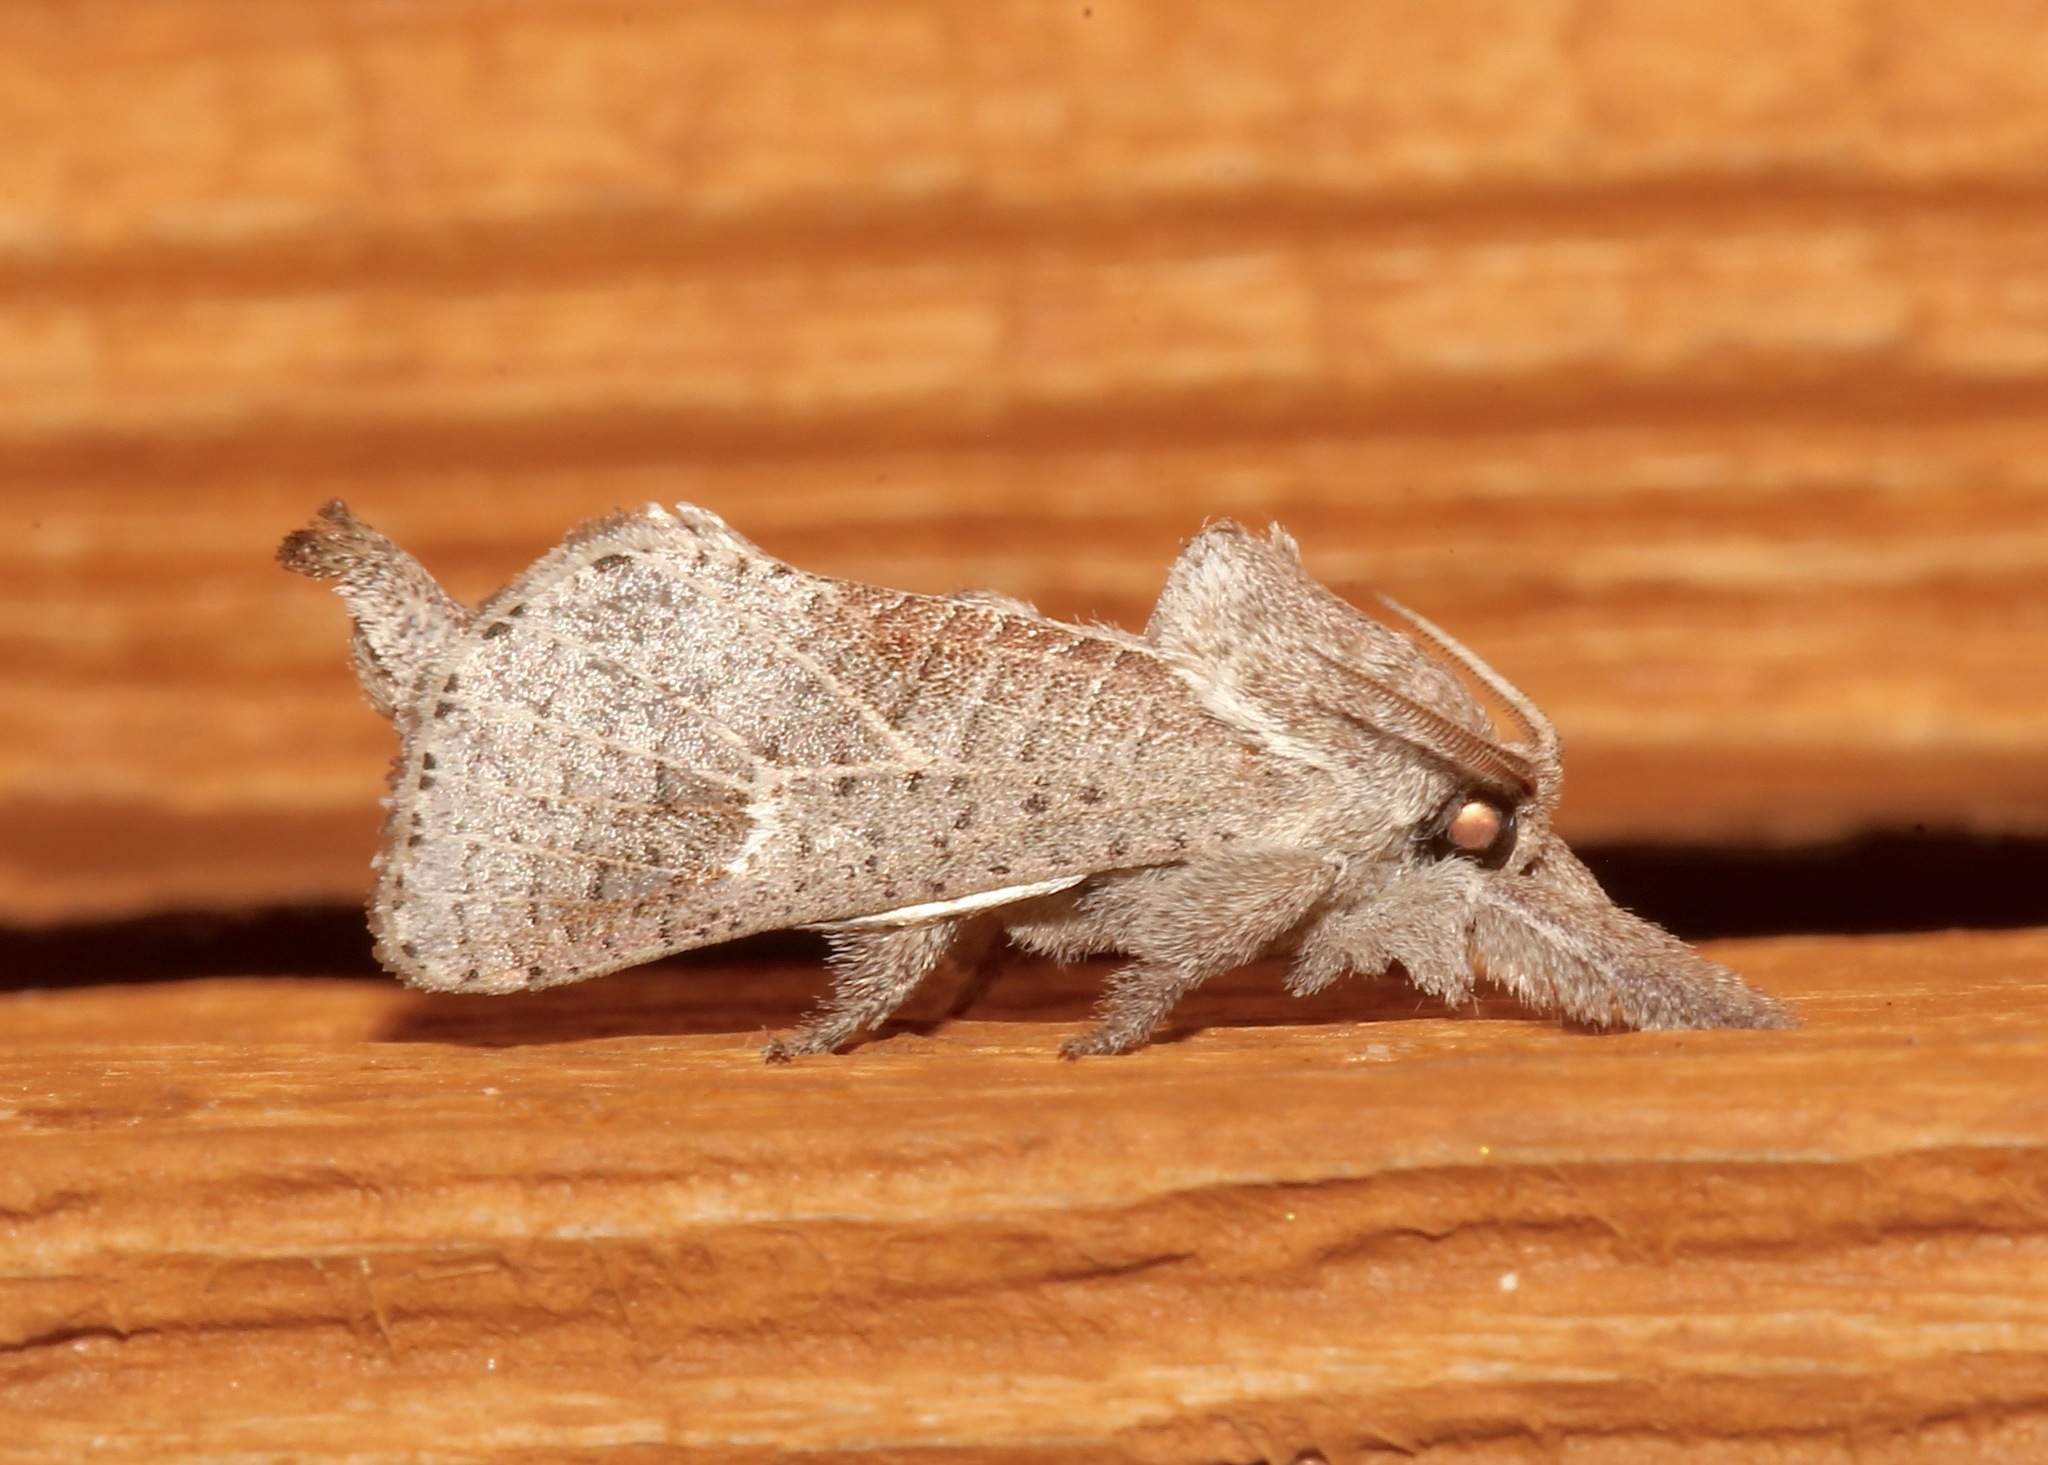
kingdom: Animalia
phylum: Arthropoda
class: Insecta
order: Lepidoptera
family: Cossidae
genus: Givira
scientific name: Givira anna
